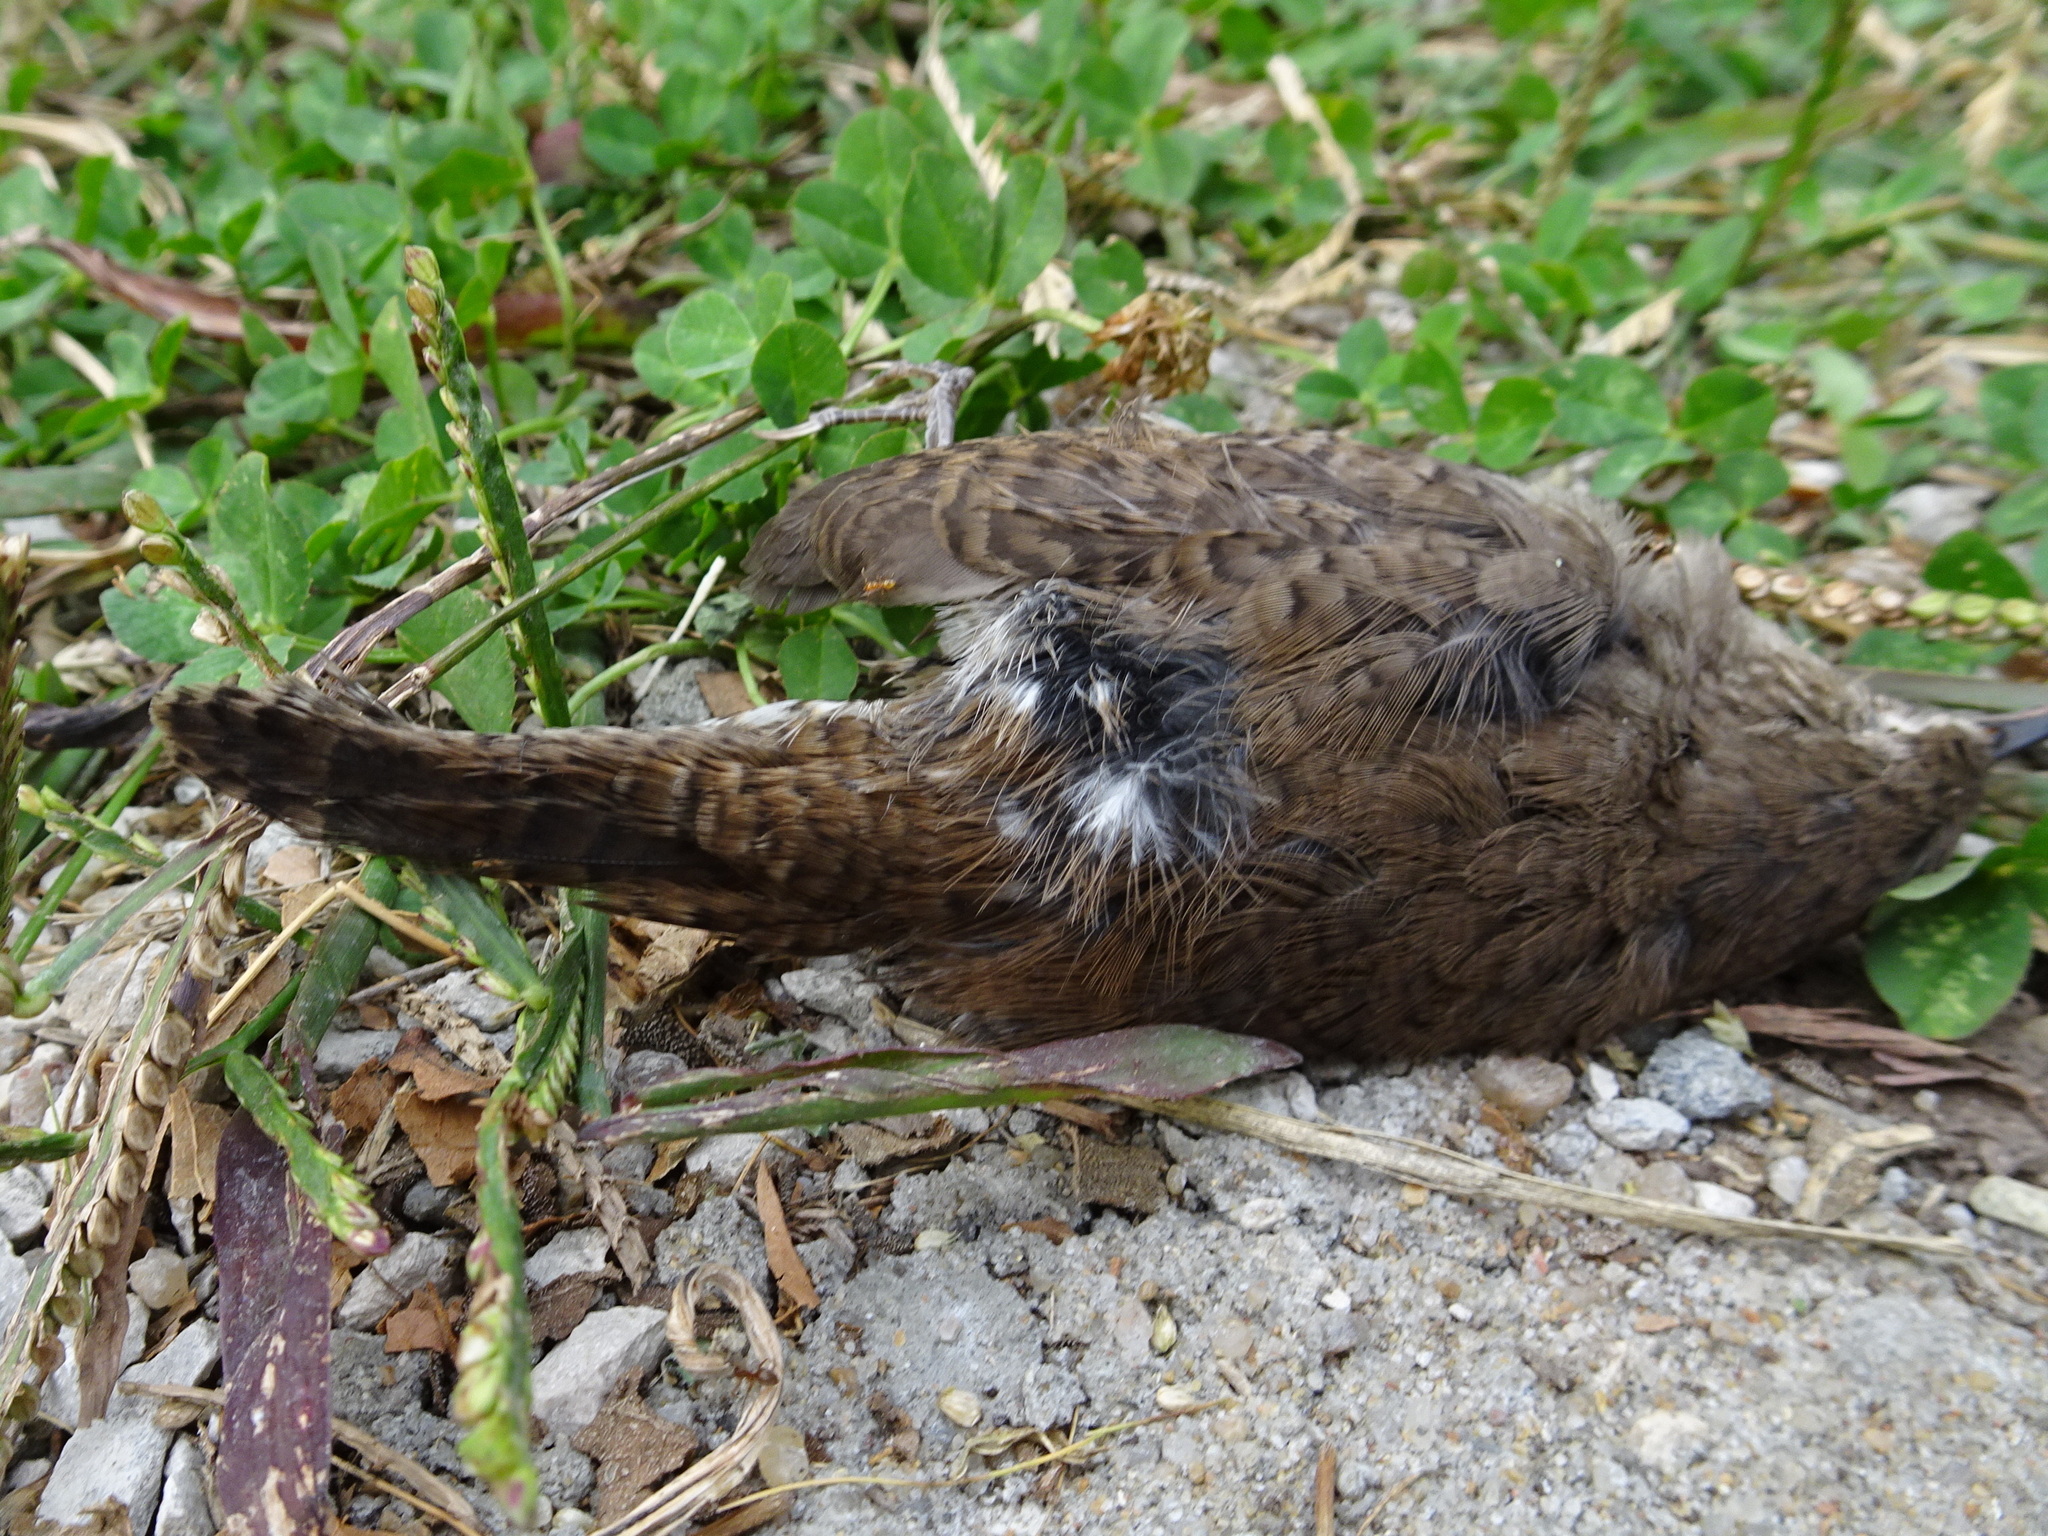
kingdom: Animalia
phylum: Chordata
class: Aves
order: Passeriformes
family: Troglodytidae
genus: Troglodytes
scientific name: Troglodytes aedon
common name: House wren
